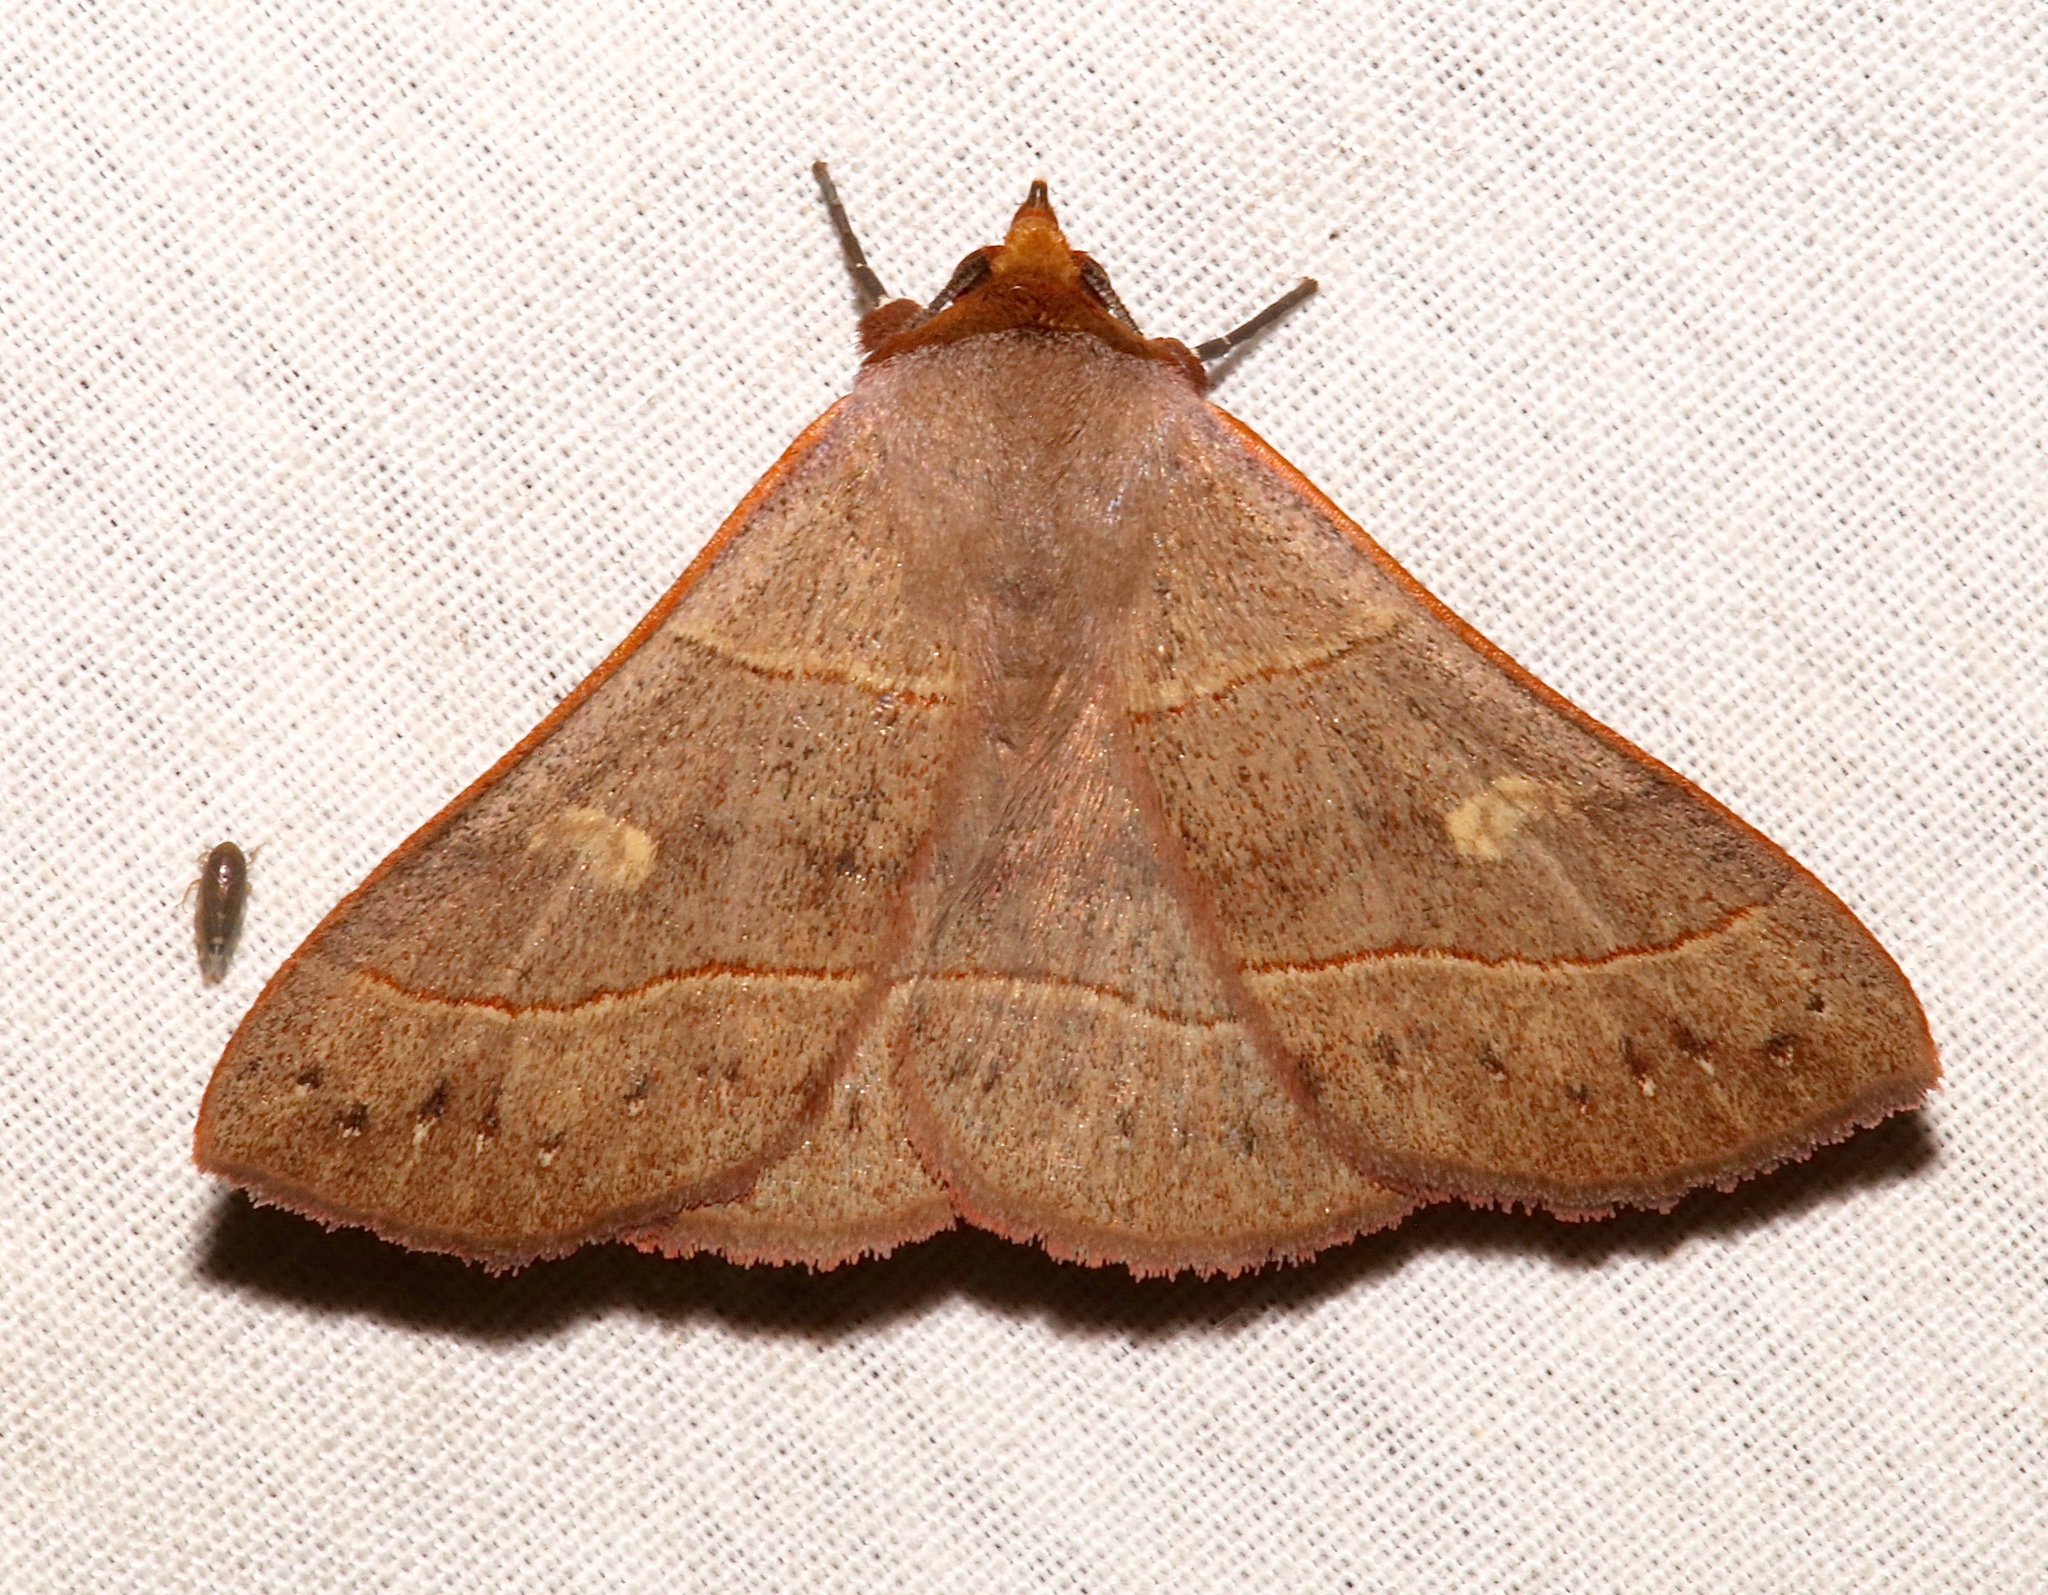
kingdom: Animalia
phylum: Arthropoda
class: Insecta
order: Lepidoptera
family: Erebidae
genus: Panopoda
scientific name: Panopoda rufimargo
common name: Red-lined panopoda moth
